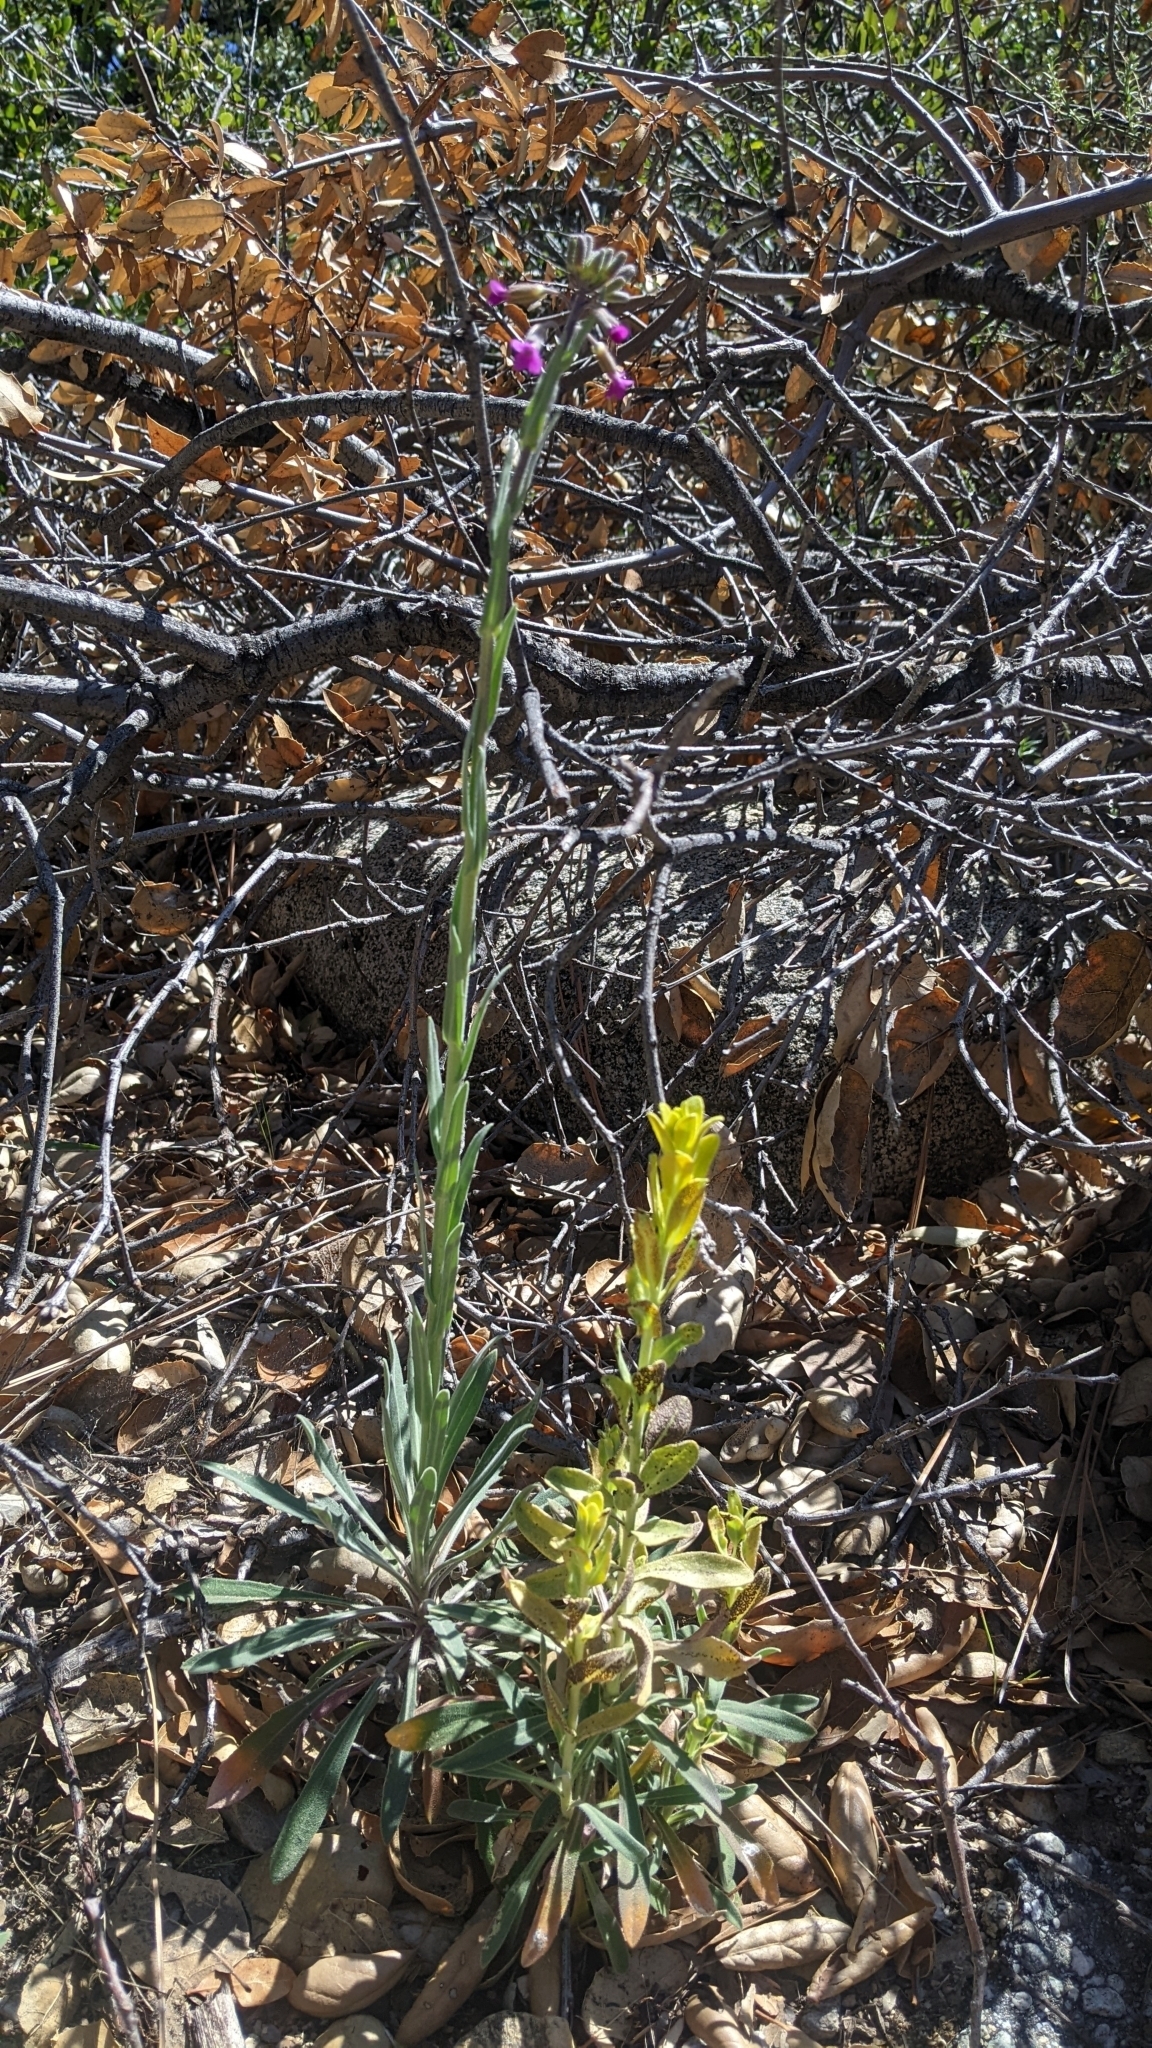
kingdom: Fungi
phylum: Basidiomycota
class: Pucciniomycetes
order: Pucciniales
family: Pucciniaceae
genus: Puccinia
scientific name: Puccinia monoica
